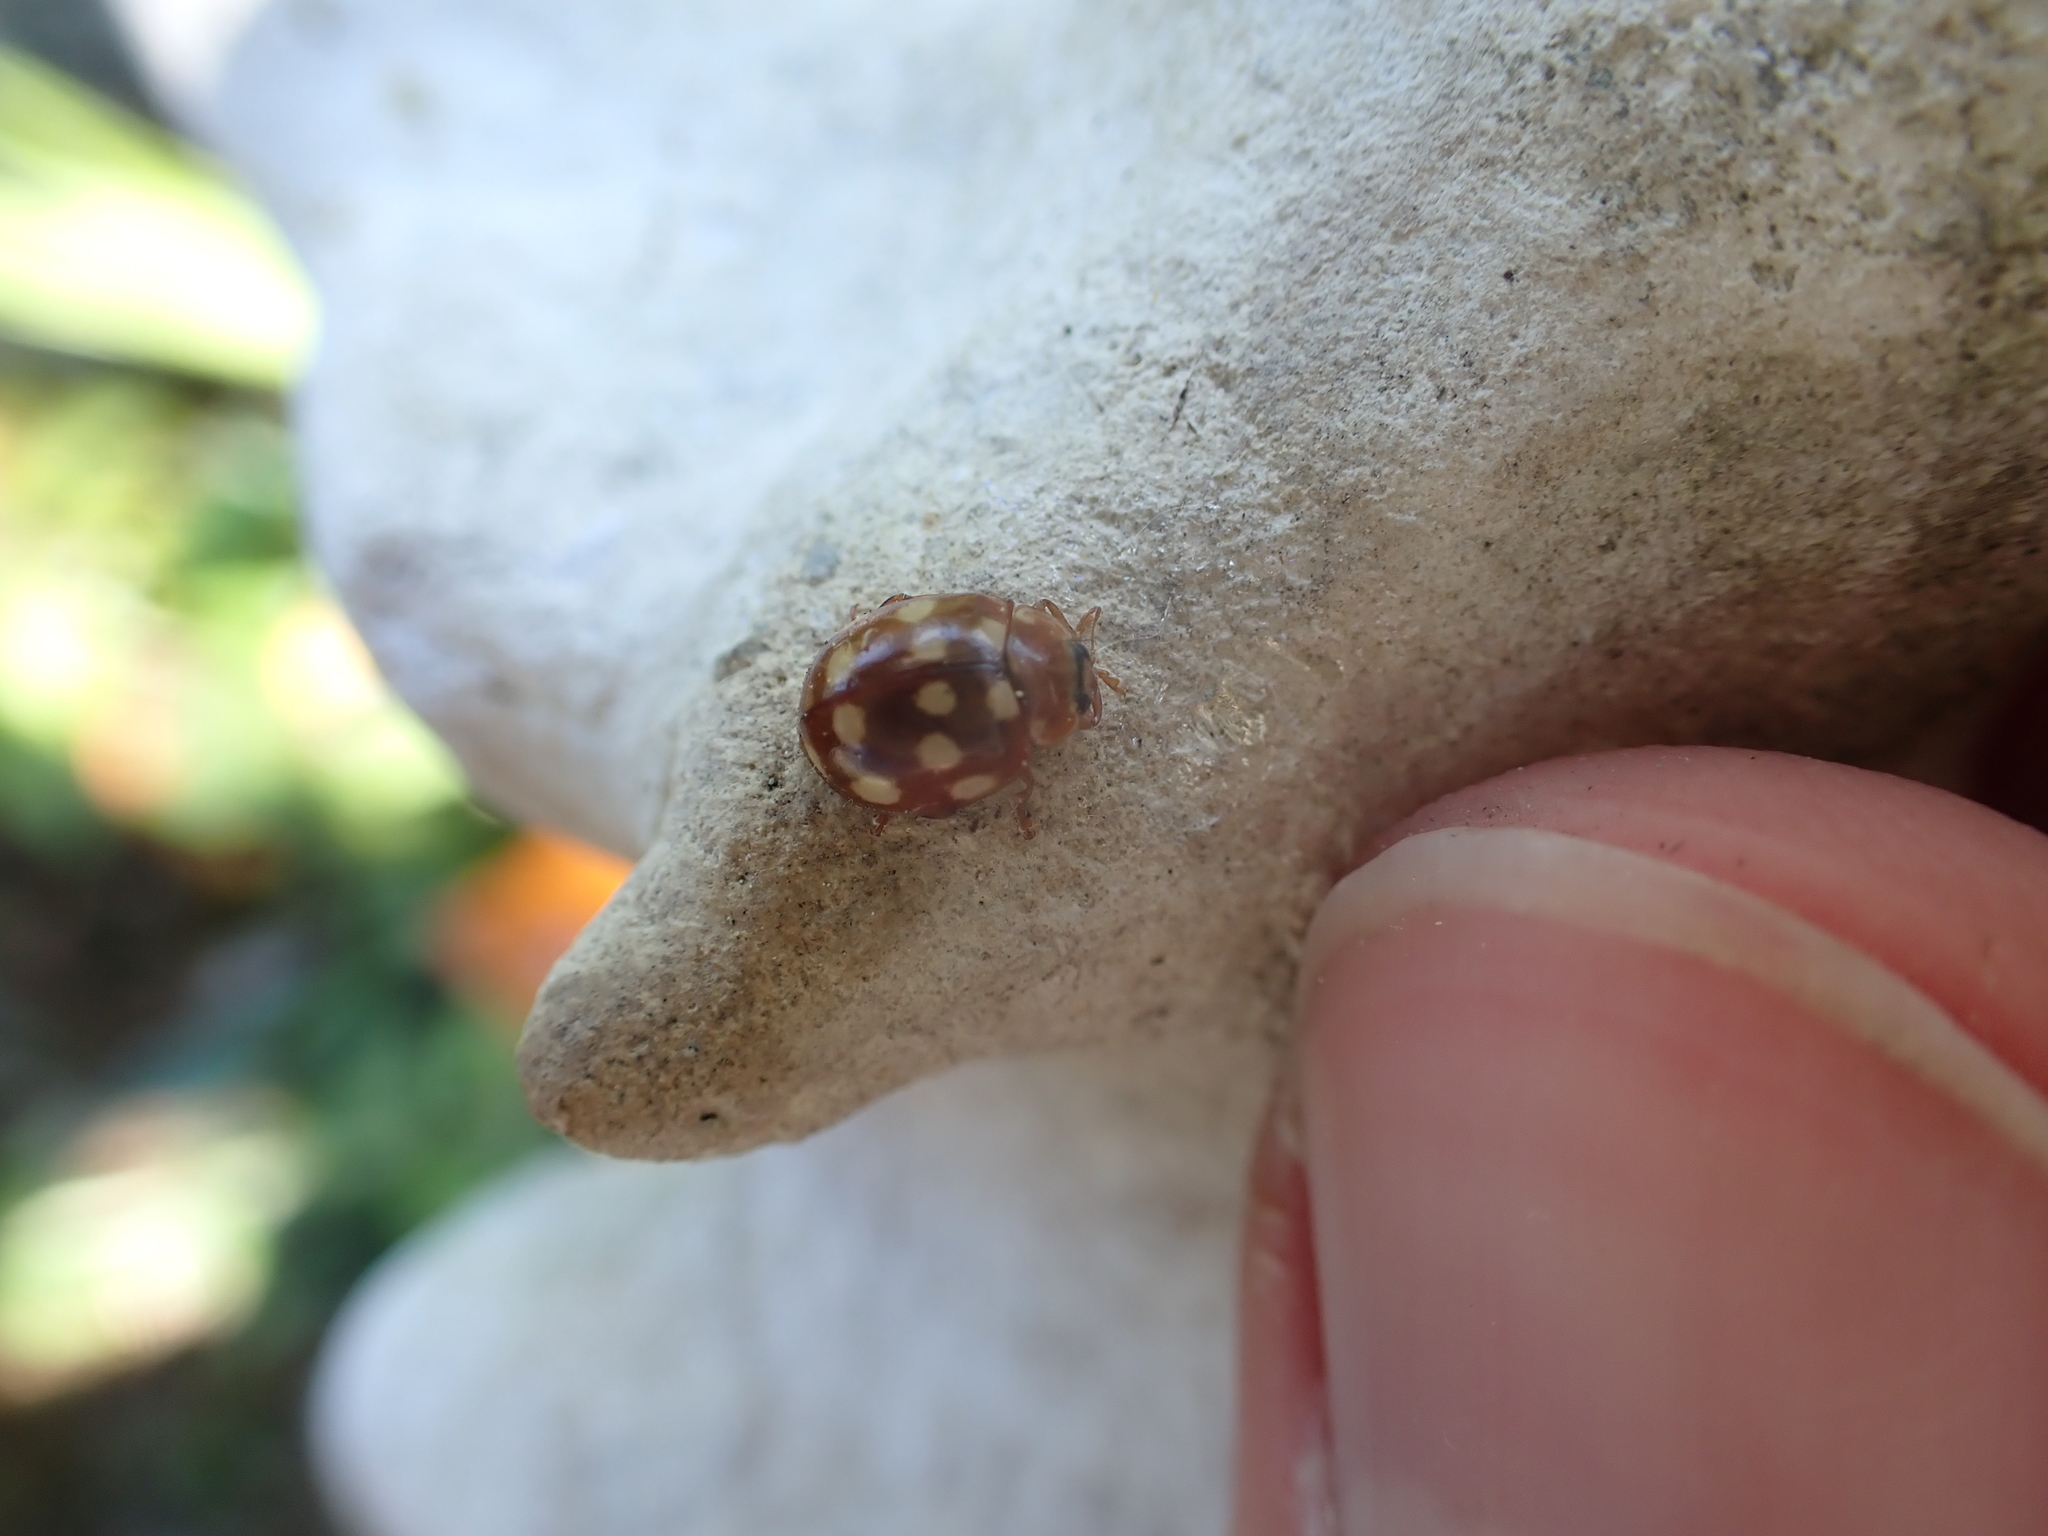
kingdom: Animalia
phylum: Arthropoda
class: Insecta
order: Coleoptera
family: Coccinellidae
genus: Calvia
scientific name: Calvia quatuordecimguttata
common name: Cream-spot ladybird
